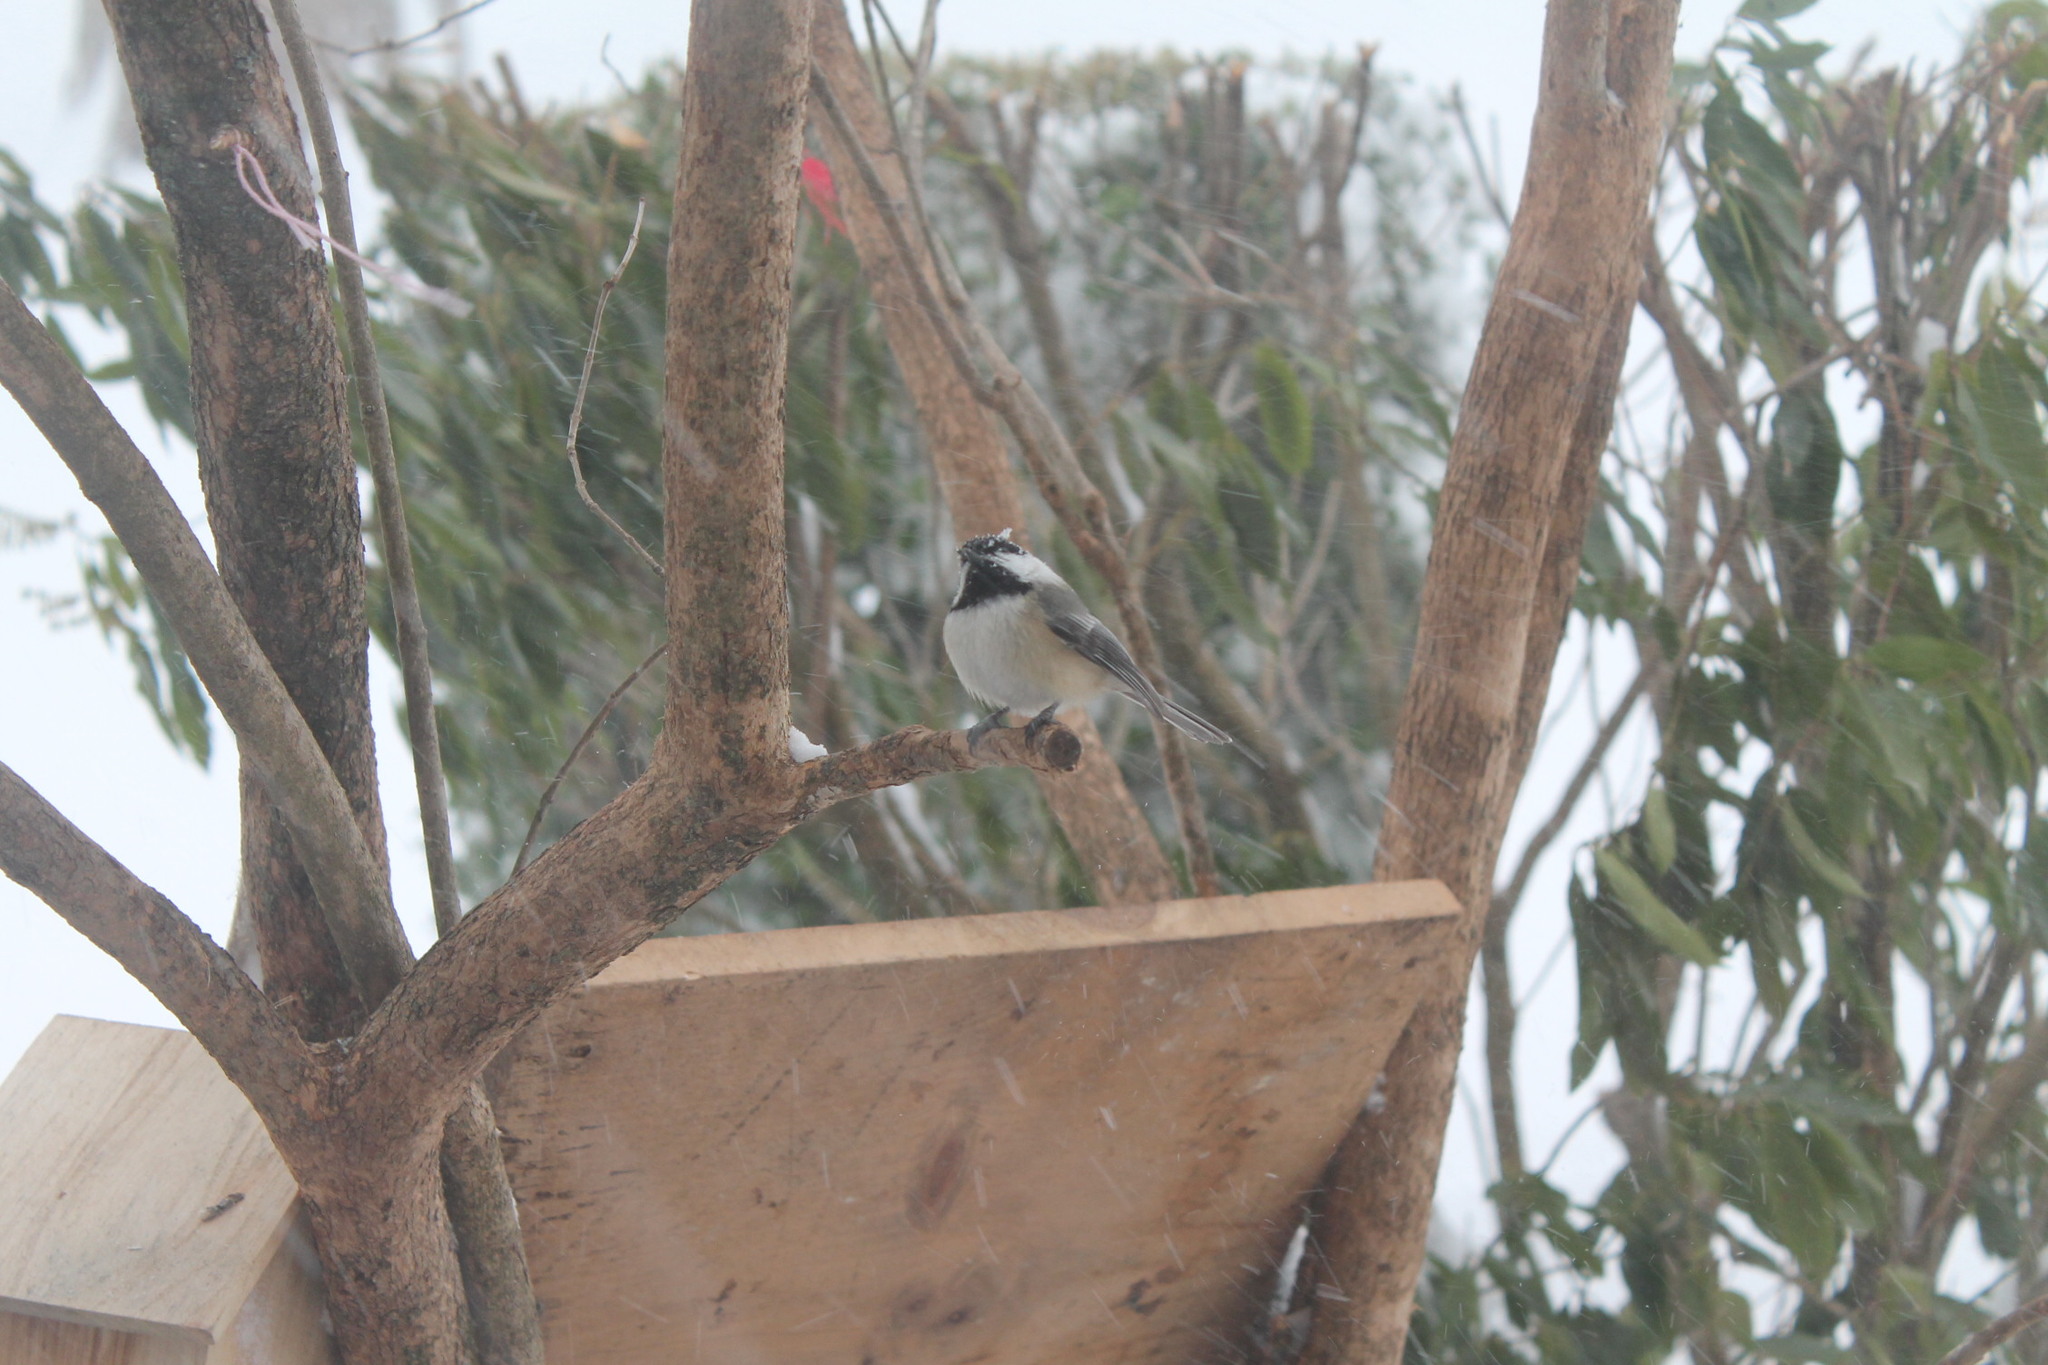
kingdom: Animalia
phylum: Chordata
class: Aves
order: Passeriformes
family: Paridae
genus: Poecile
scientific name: Poecile atricapillus
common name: Black-capped chickadee
